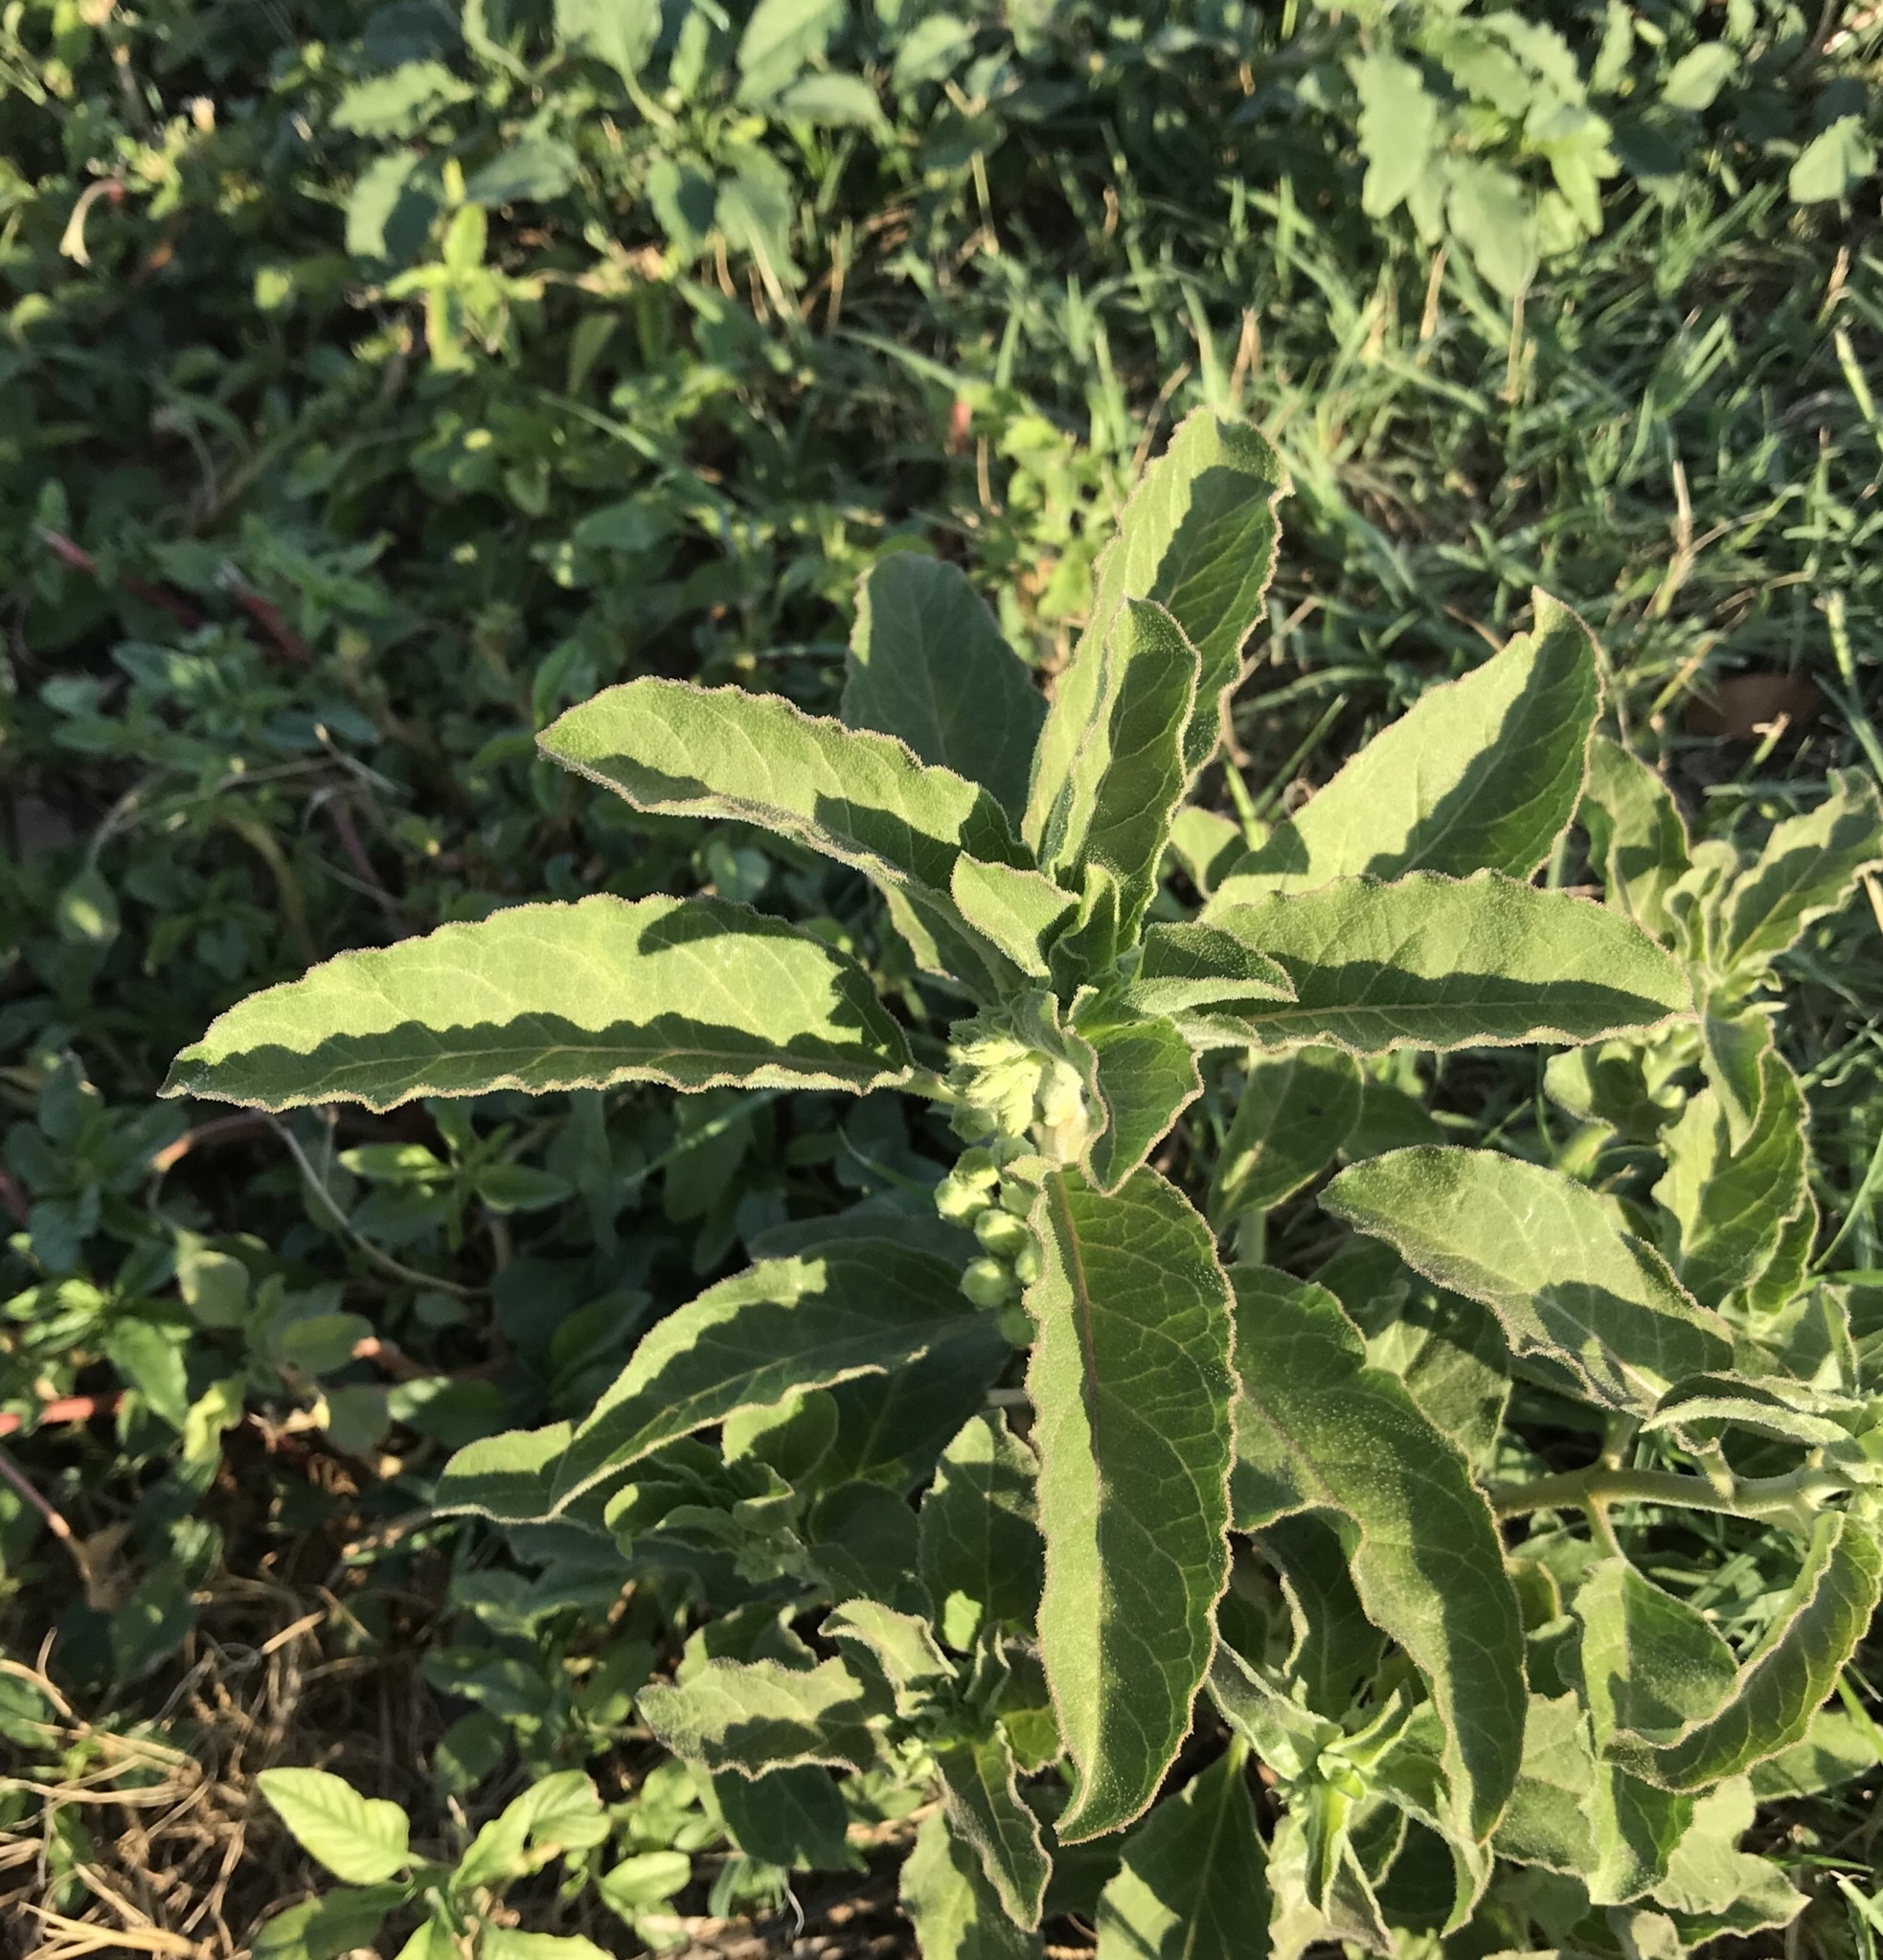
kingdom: Plantae
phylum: Tracheophyta
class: Magnoliopsida
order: Gentianales
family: Apocynaceae
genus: Asclepias
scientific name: Asclepias oenotheroides
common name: Zizotes milkweed
